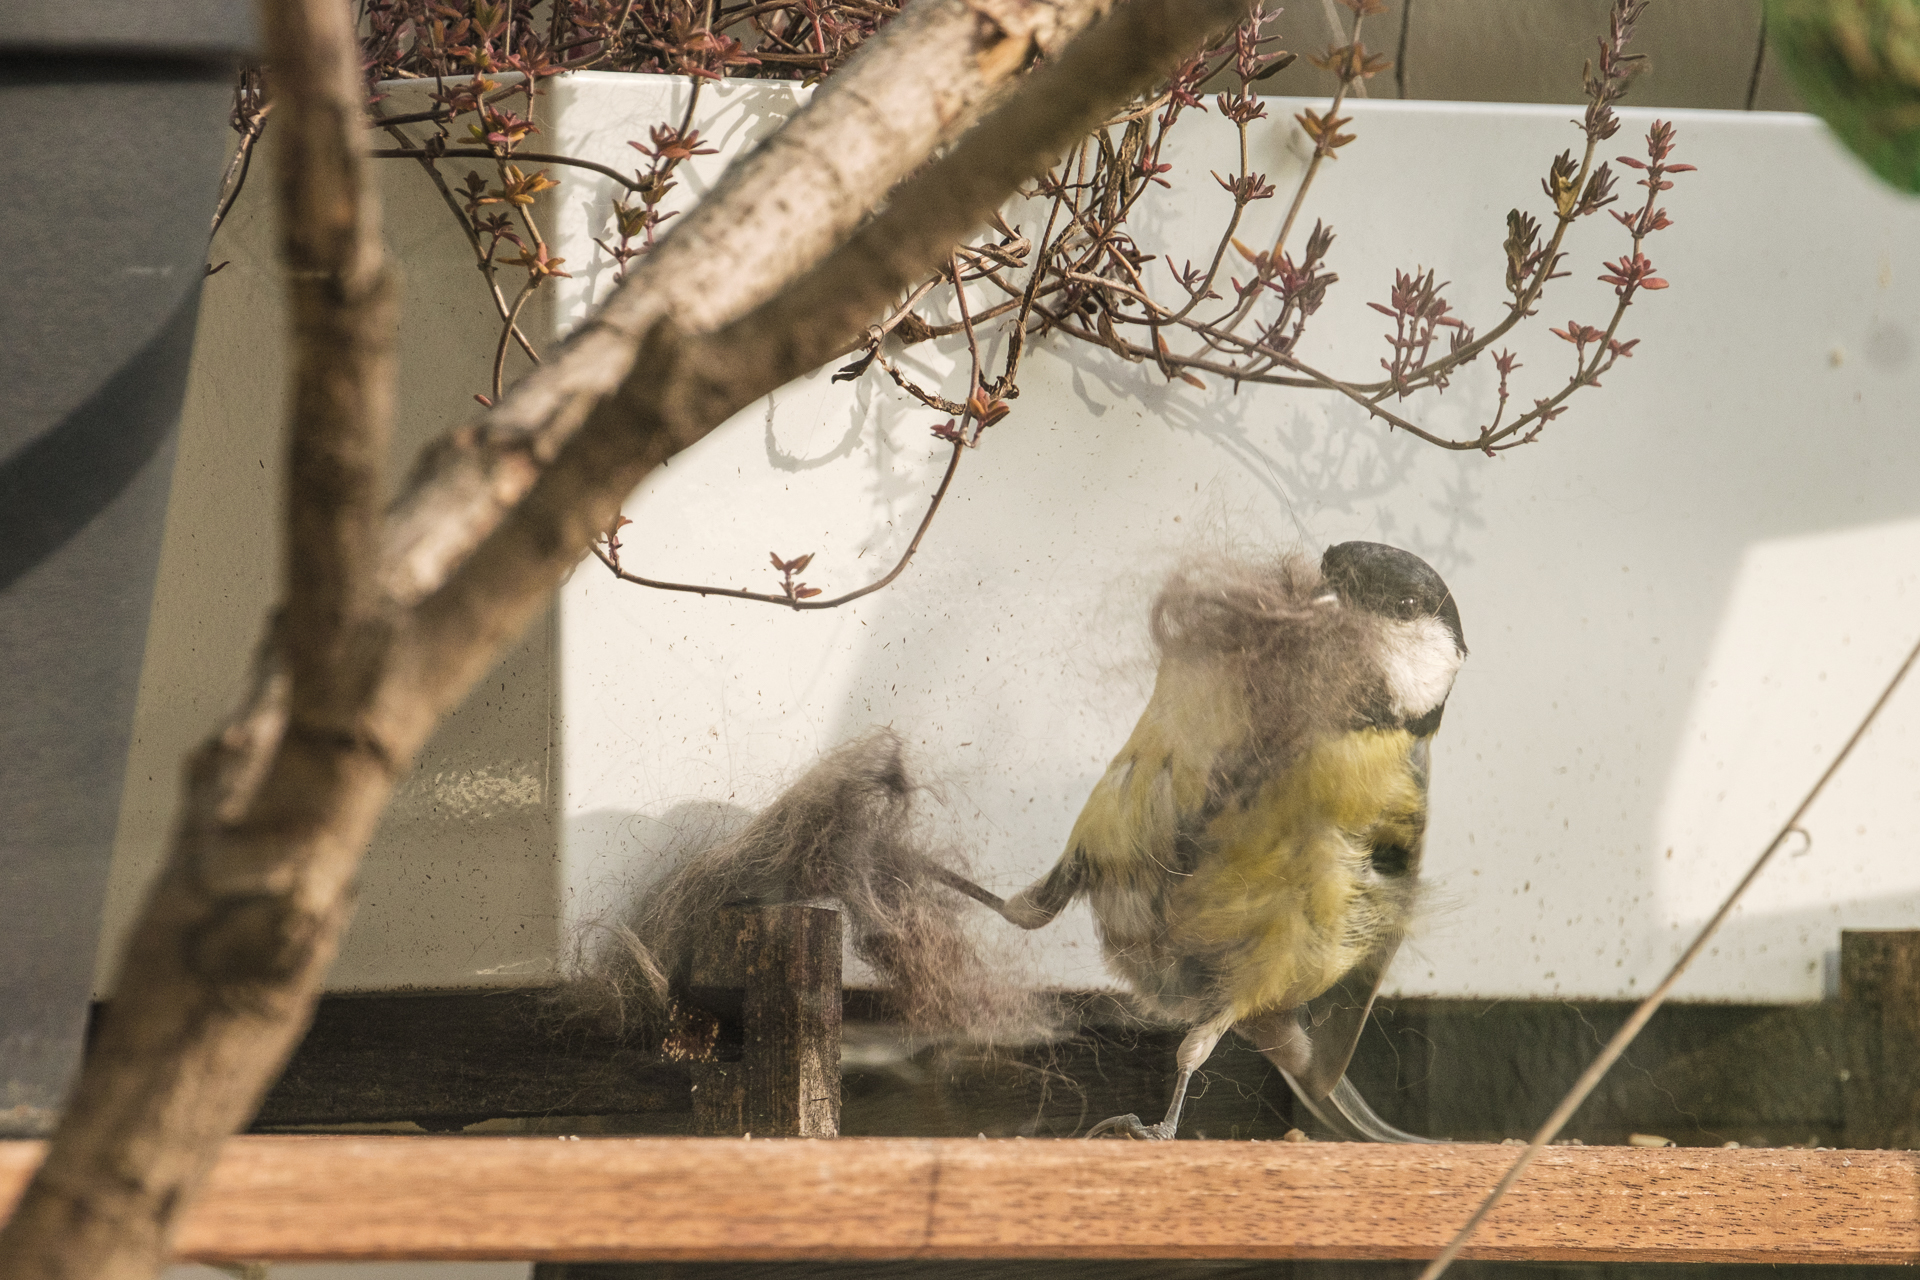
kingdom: Animalia
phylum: Chordata
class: Aves
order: Passeriformes
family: Paridae
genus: Parus
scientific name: Parus major
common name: Great tit
